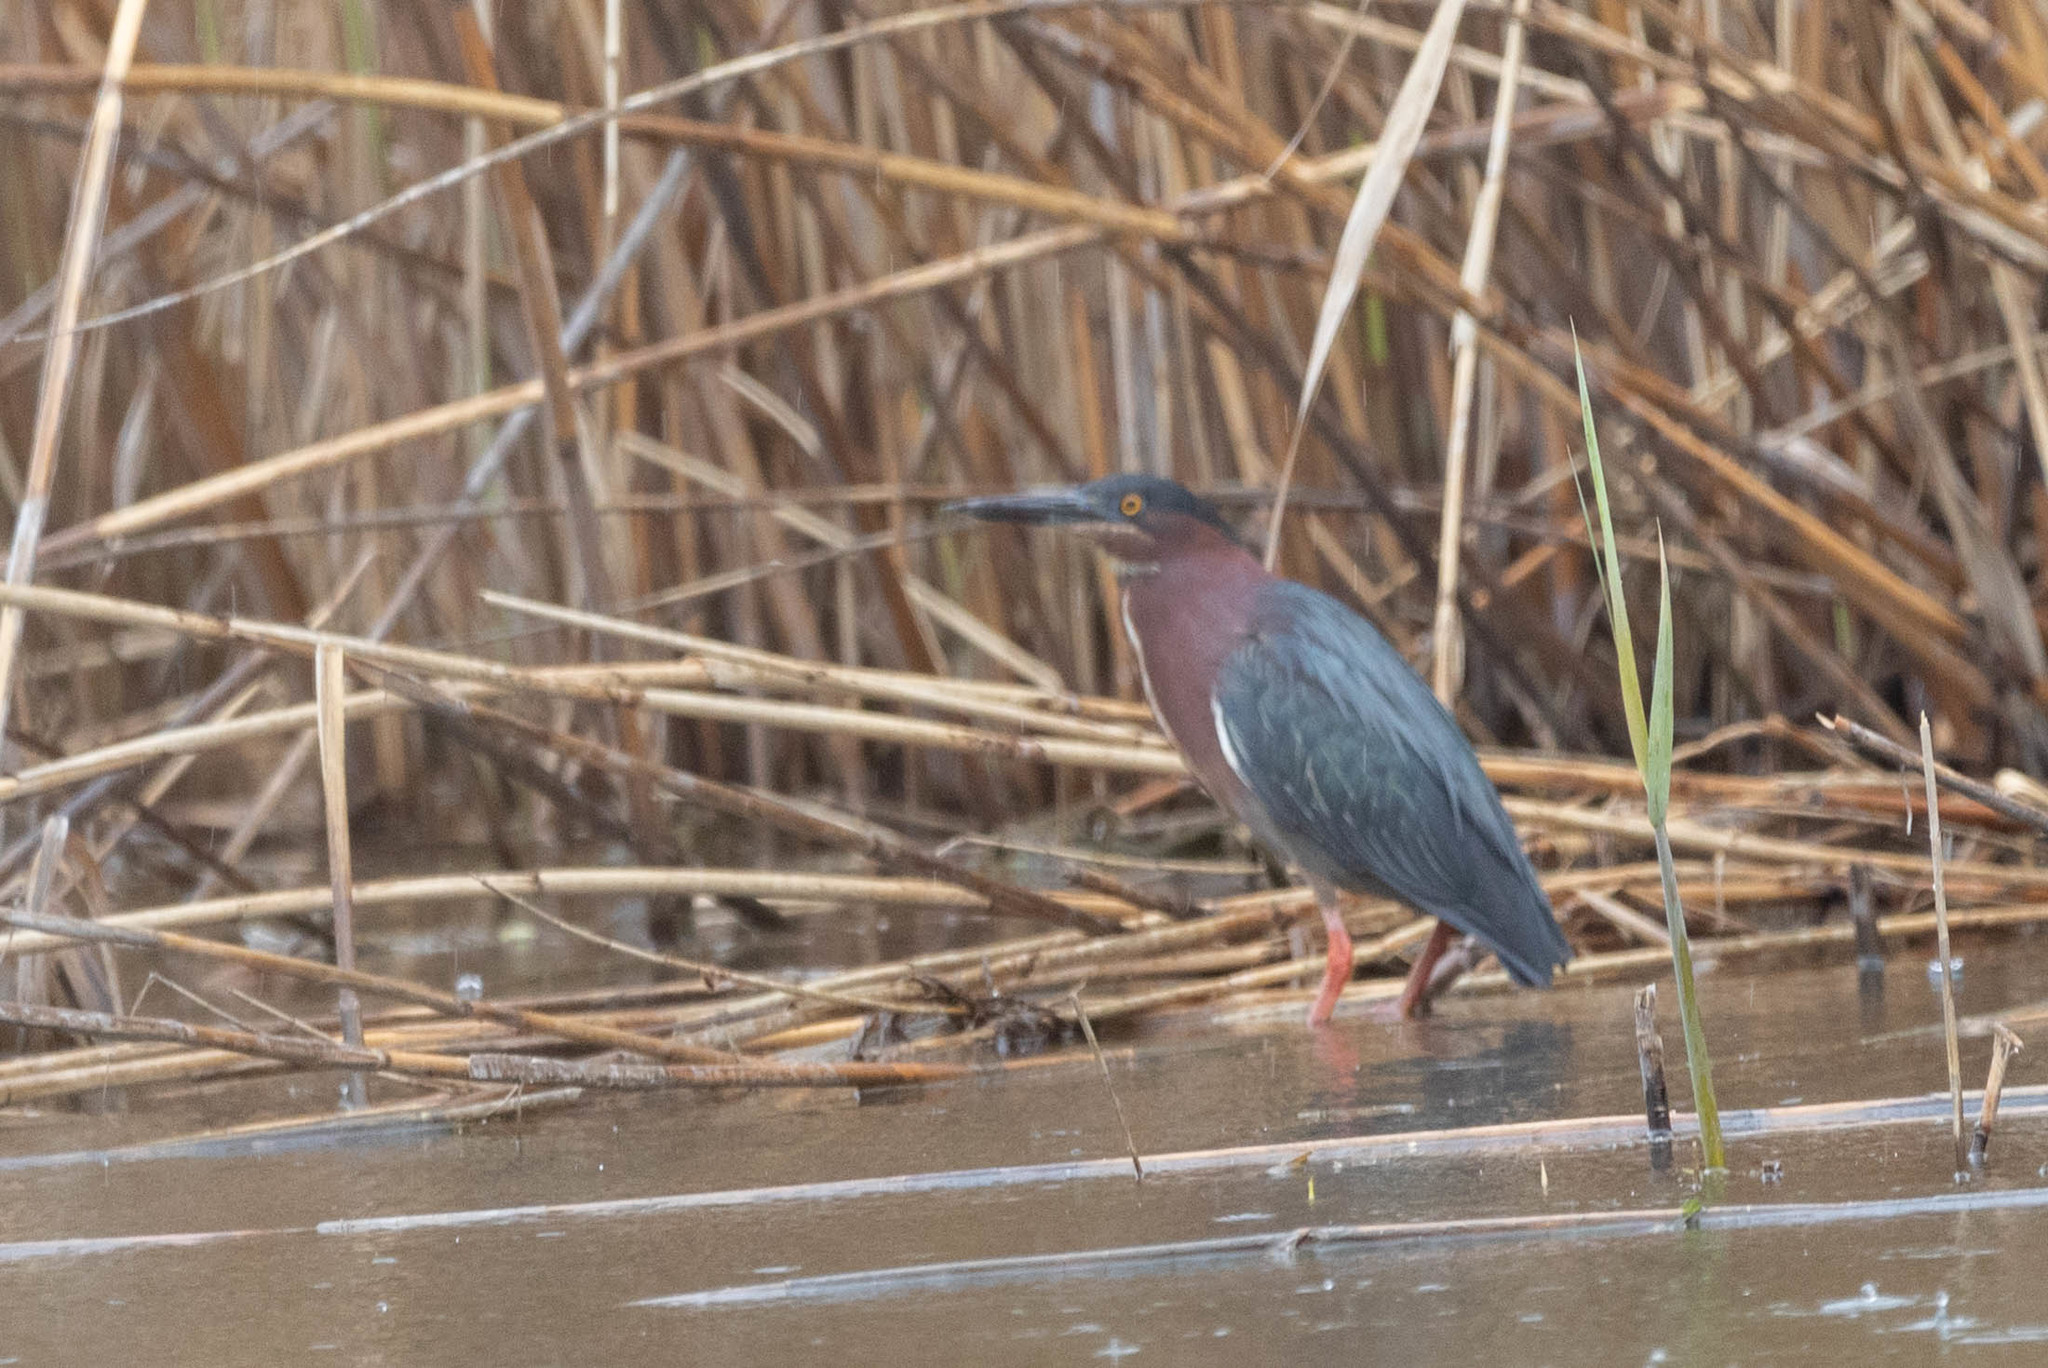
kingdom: Animalia
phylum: Chordata
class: Aves
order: Pelecaniformes
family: Ardeidae
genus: Butorides
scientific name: Butorides virescens
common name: Green heron
